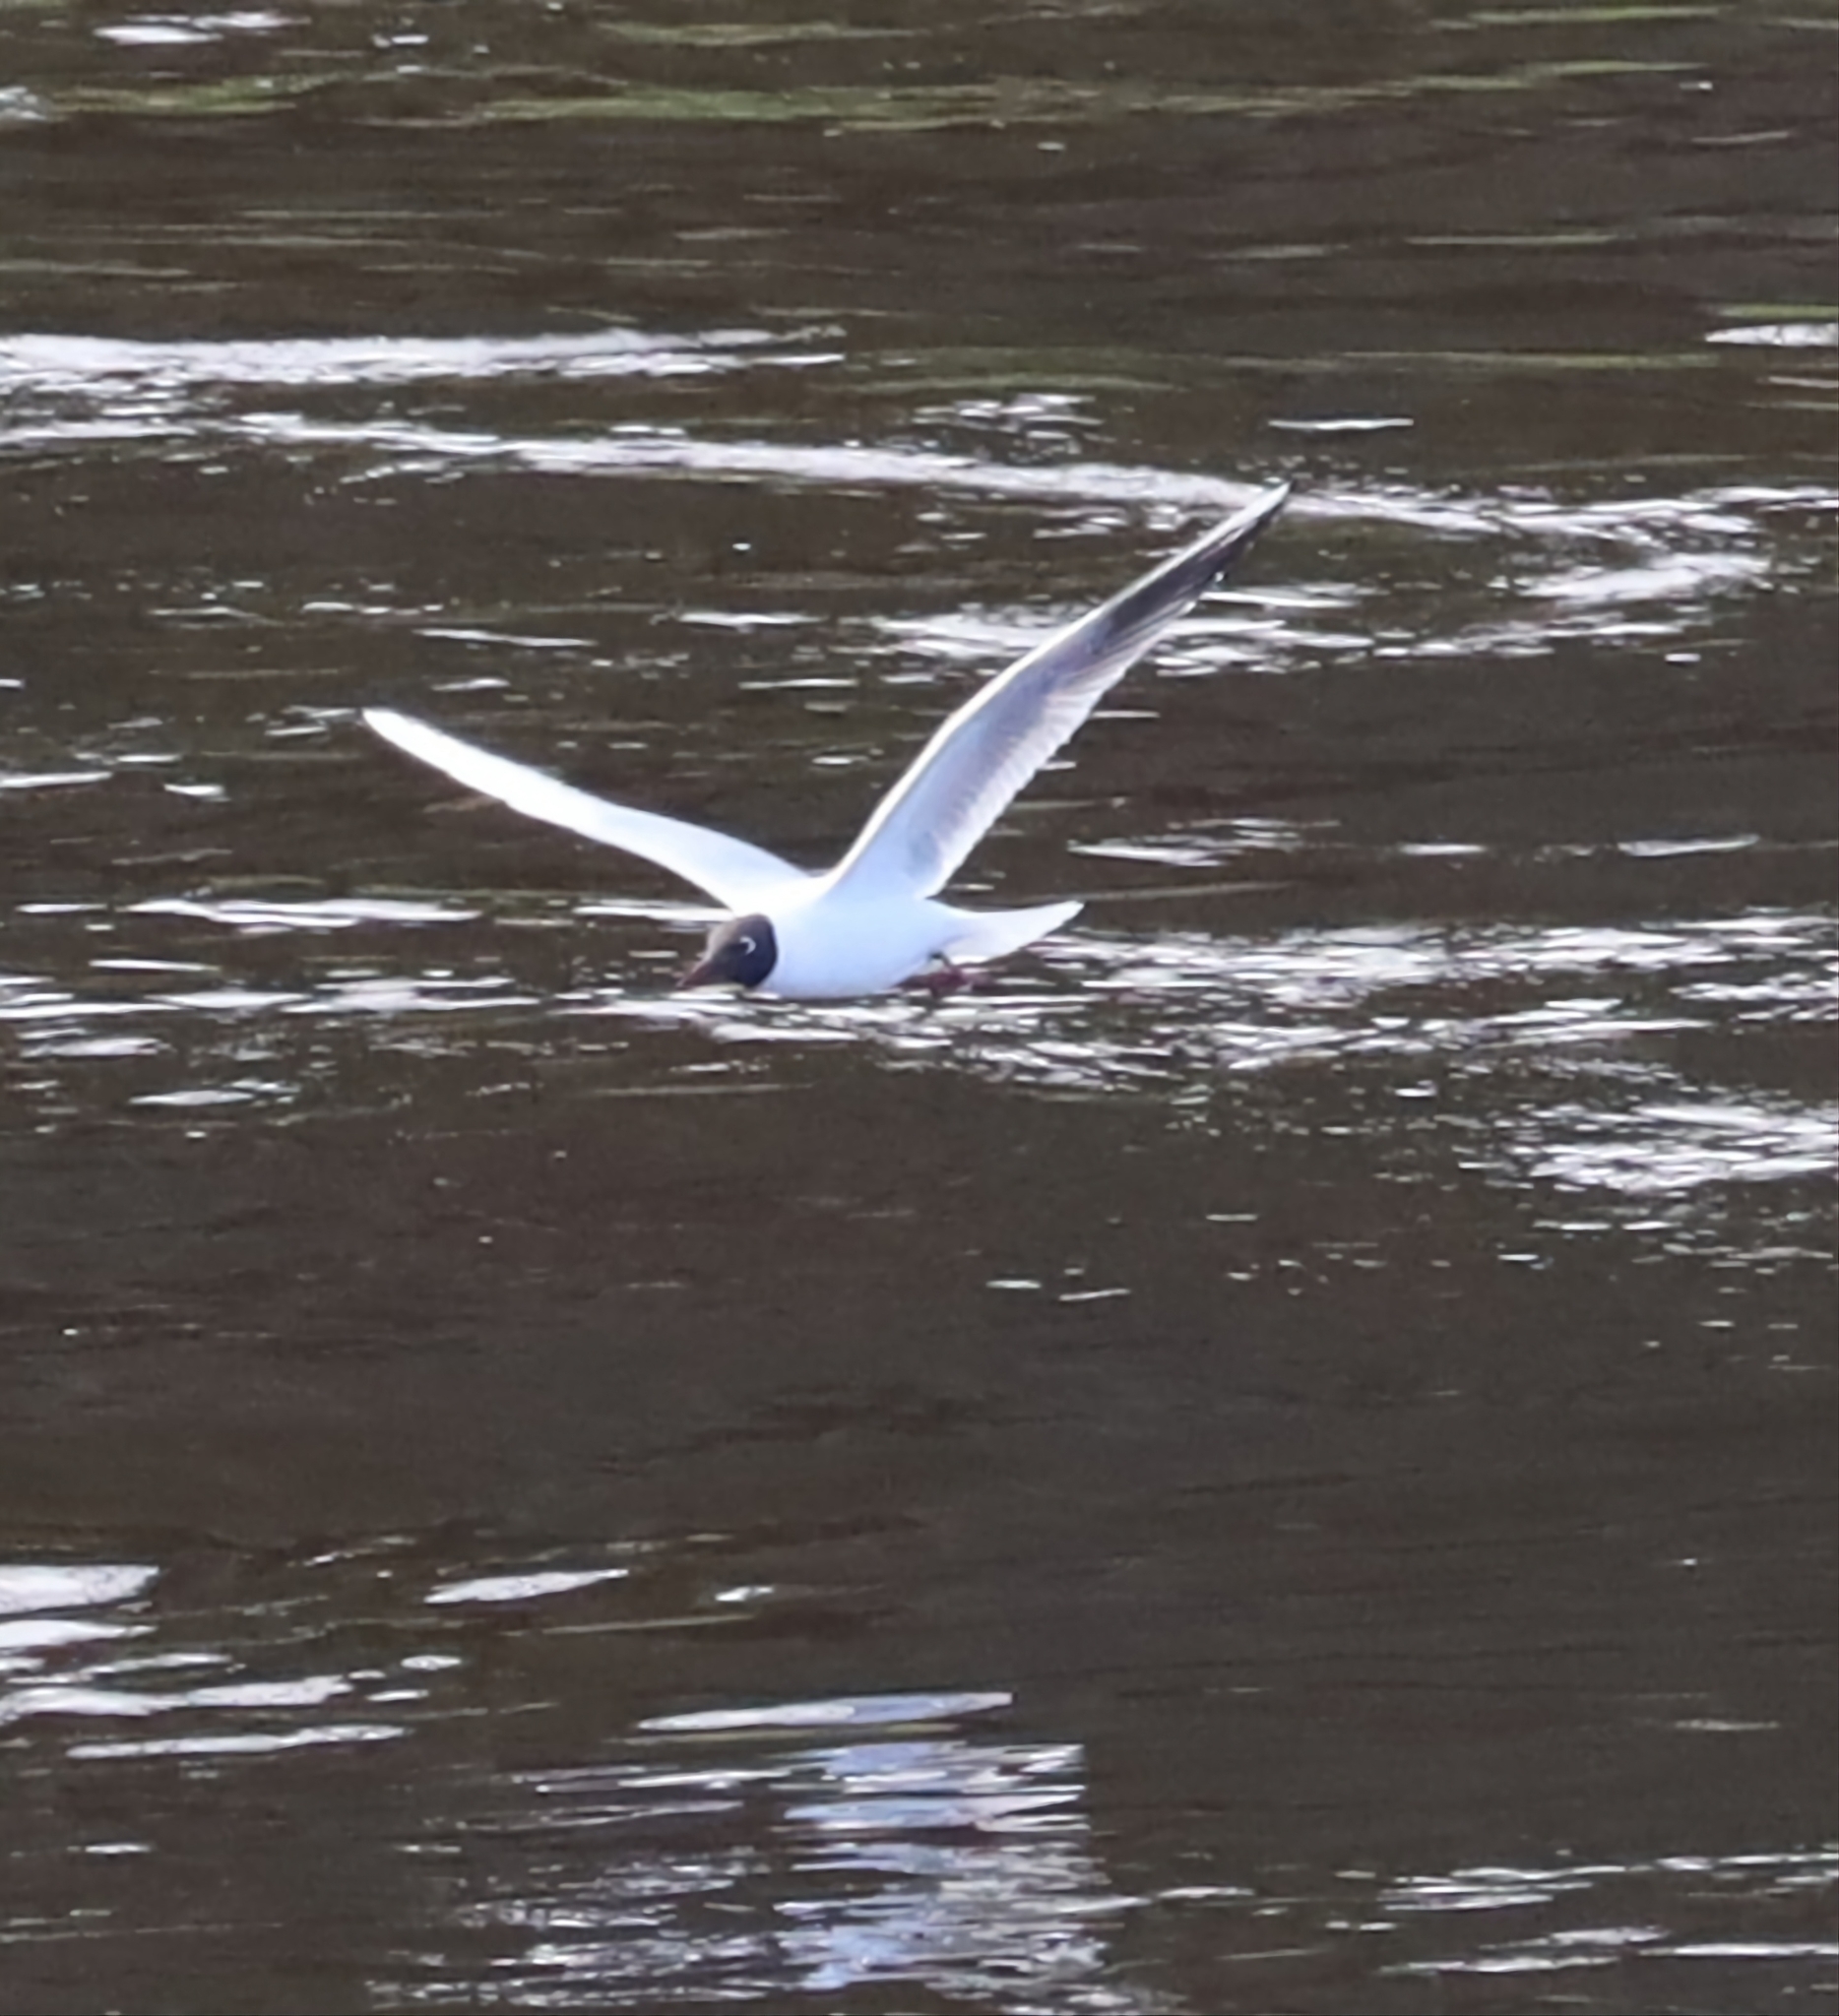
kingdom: Animalia
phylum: Chordata
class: Aves
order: Charadriiformes
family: Laridae
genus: Chroicocephalus
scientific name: Chroicocephalus ridibundus
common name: Black-headed gull
